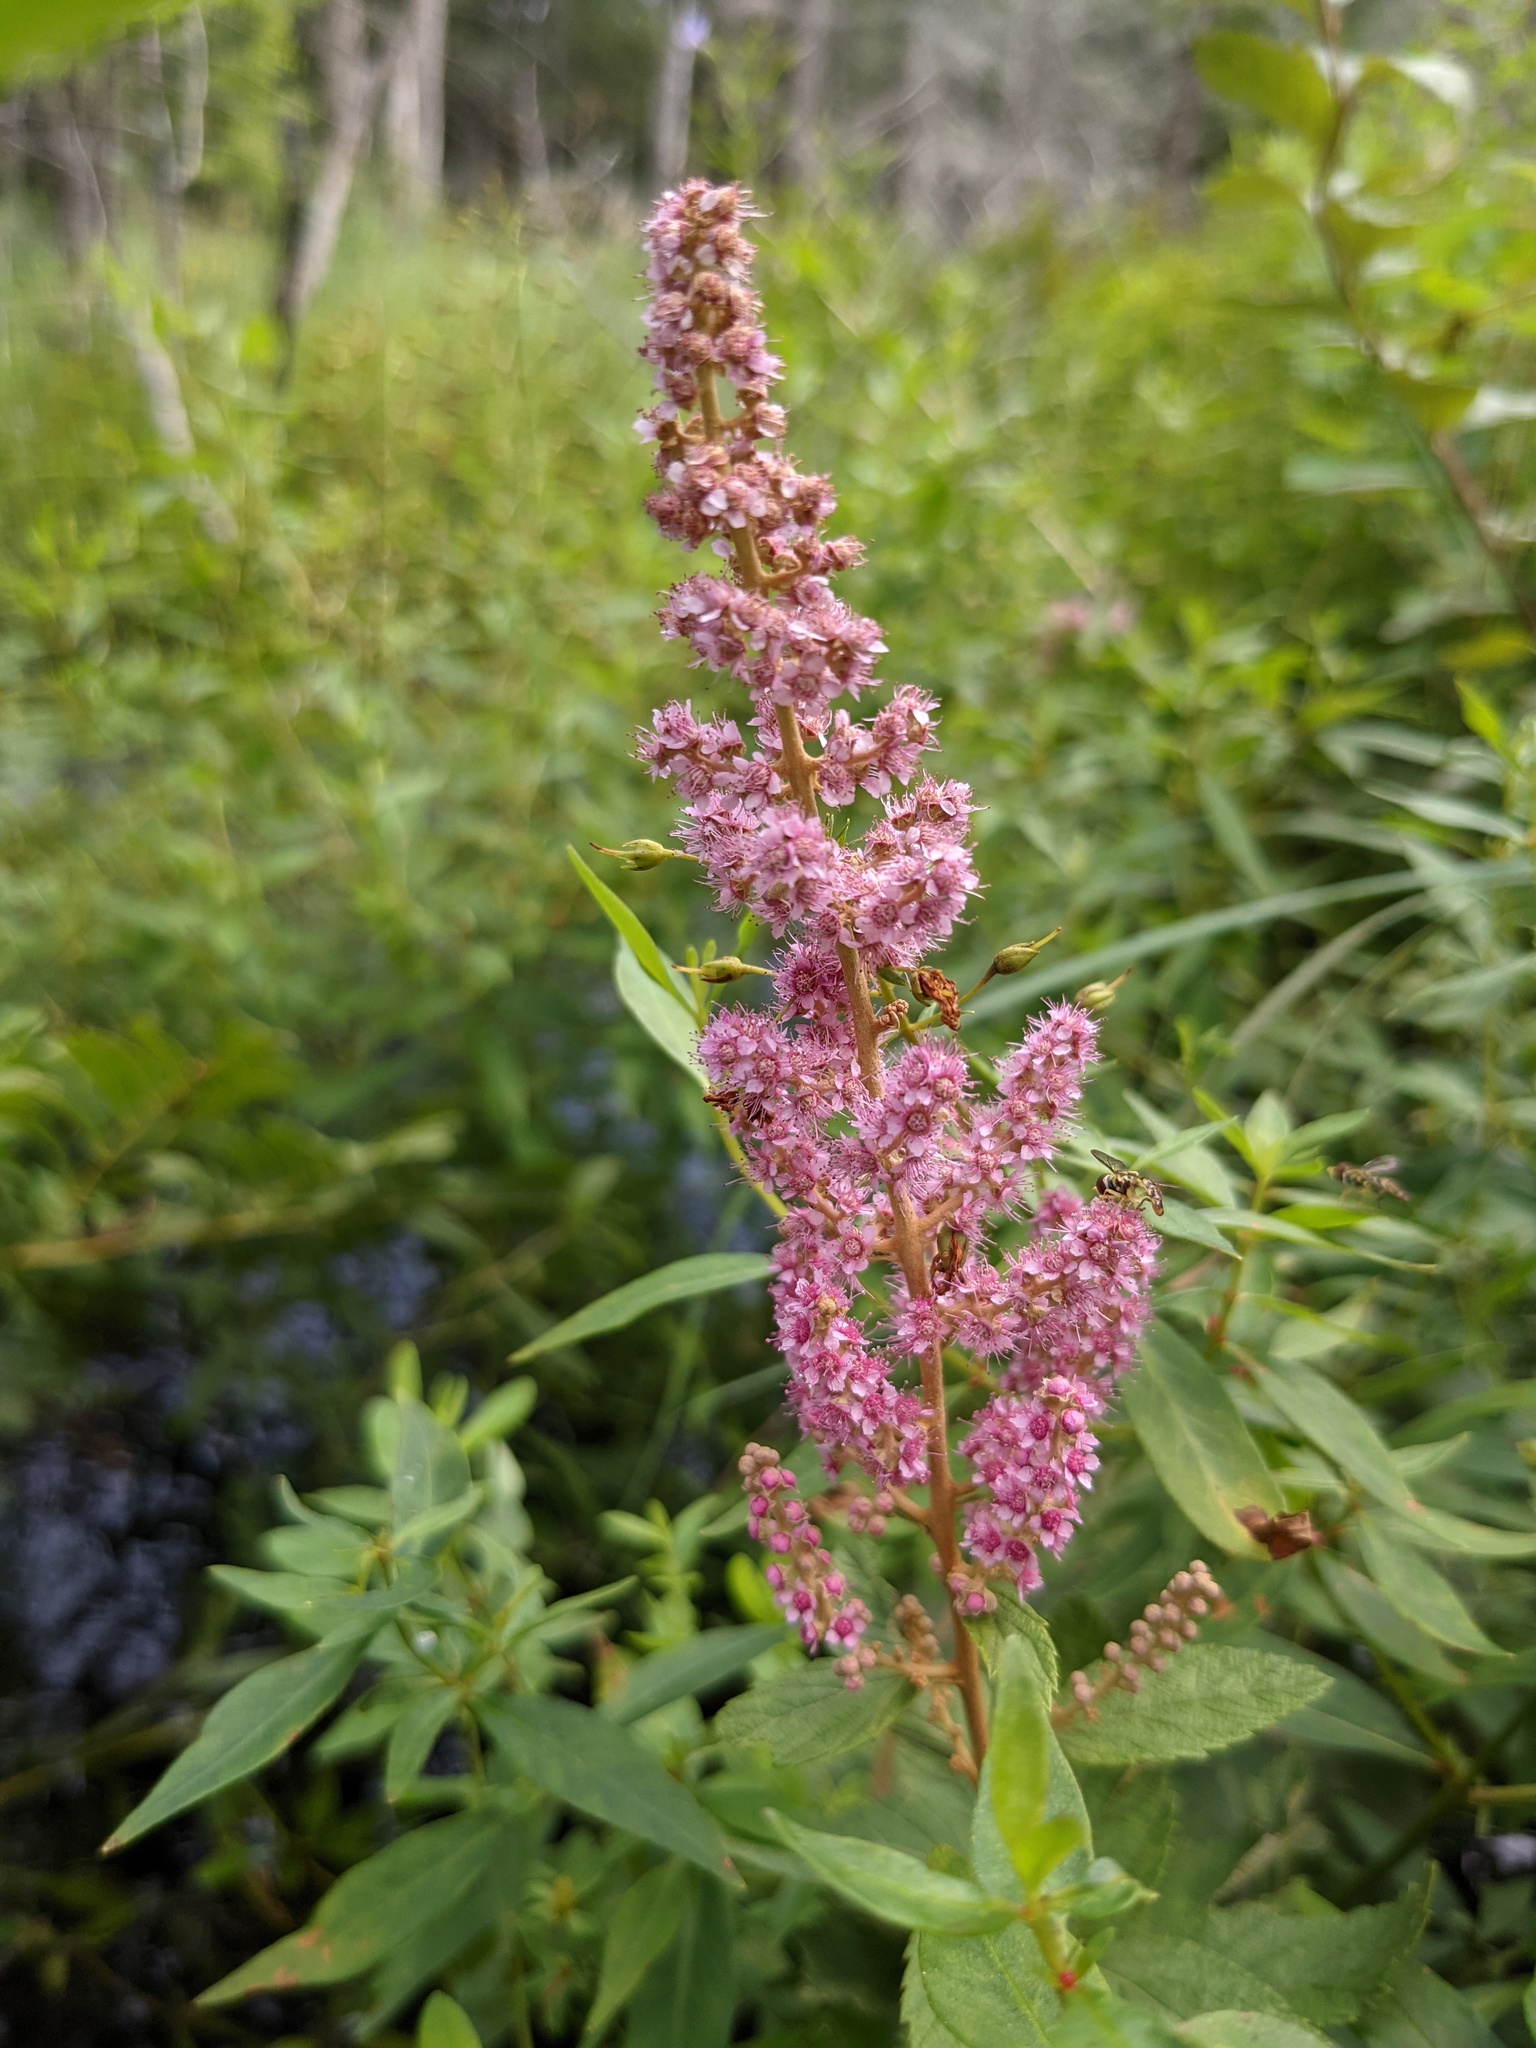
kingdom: Plantae
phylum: Tracheophyta
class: Magnoliopsida
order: Rosales
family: Rosaceae
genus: Spiraea
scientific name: Spiraea tomentosa
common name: Hardhack
